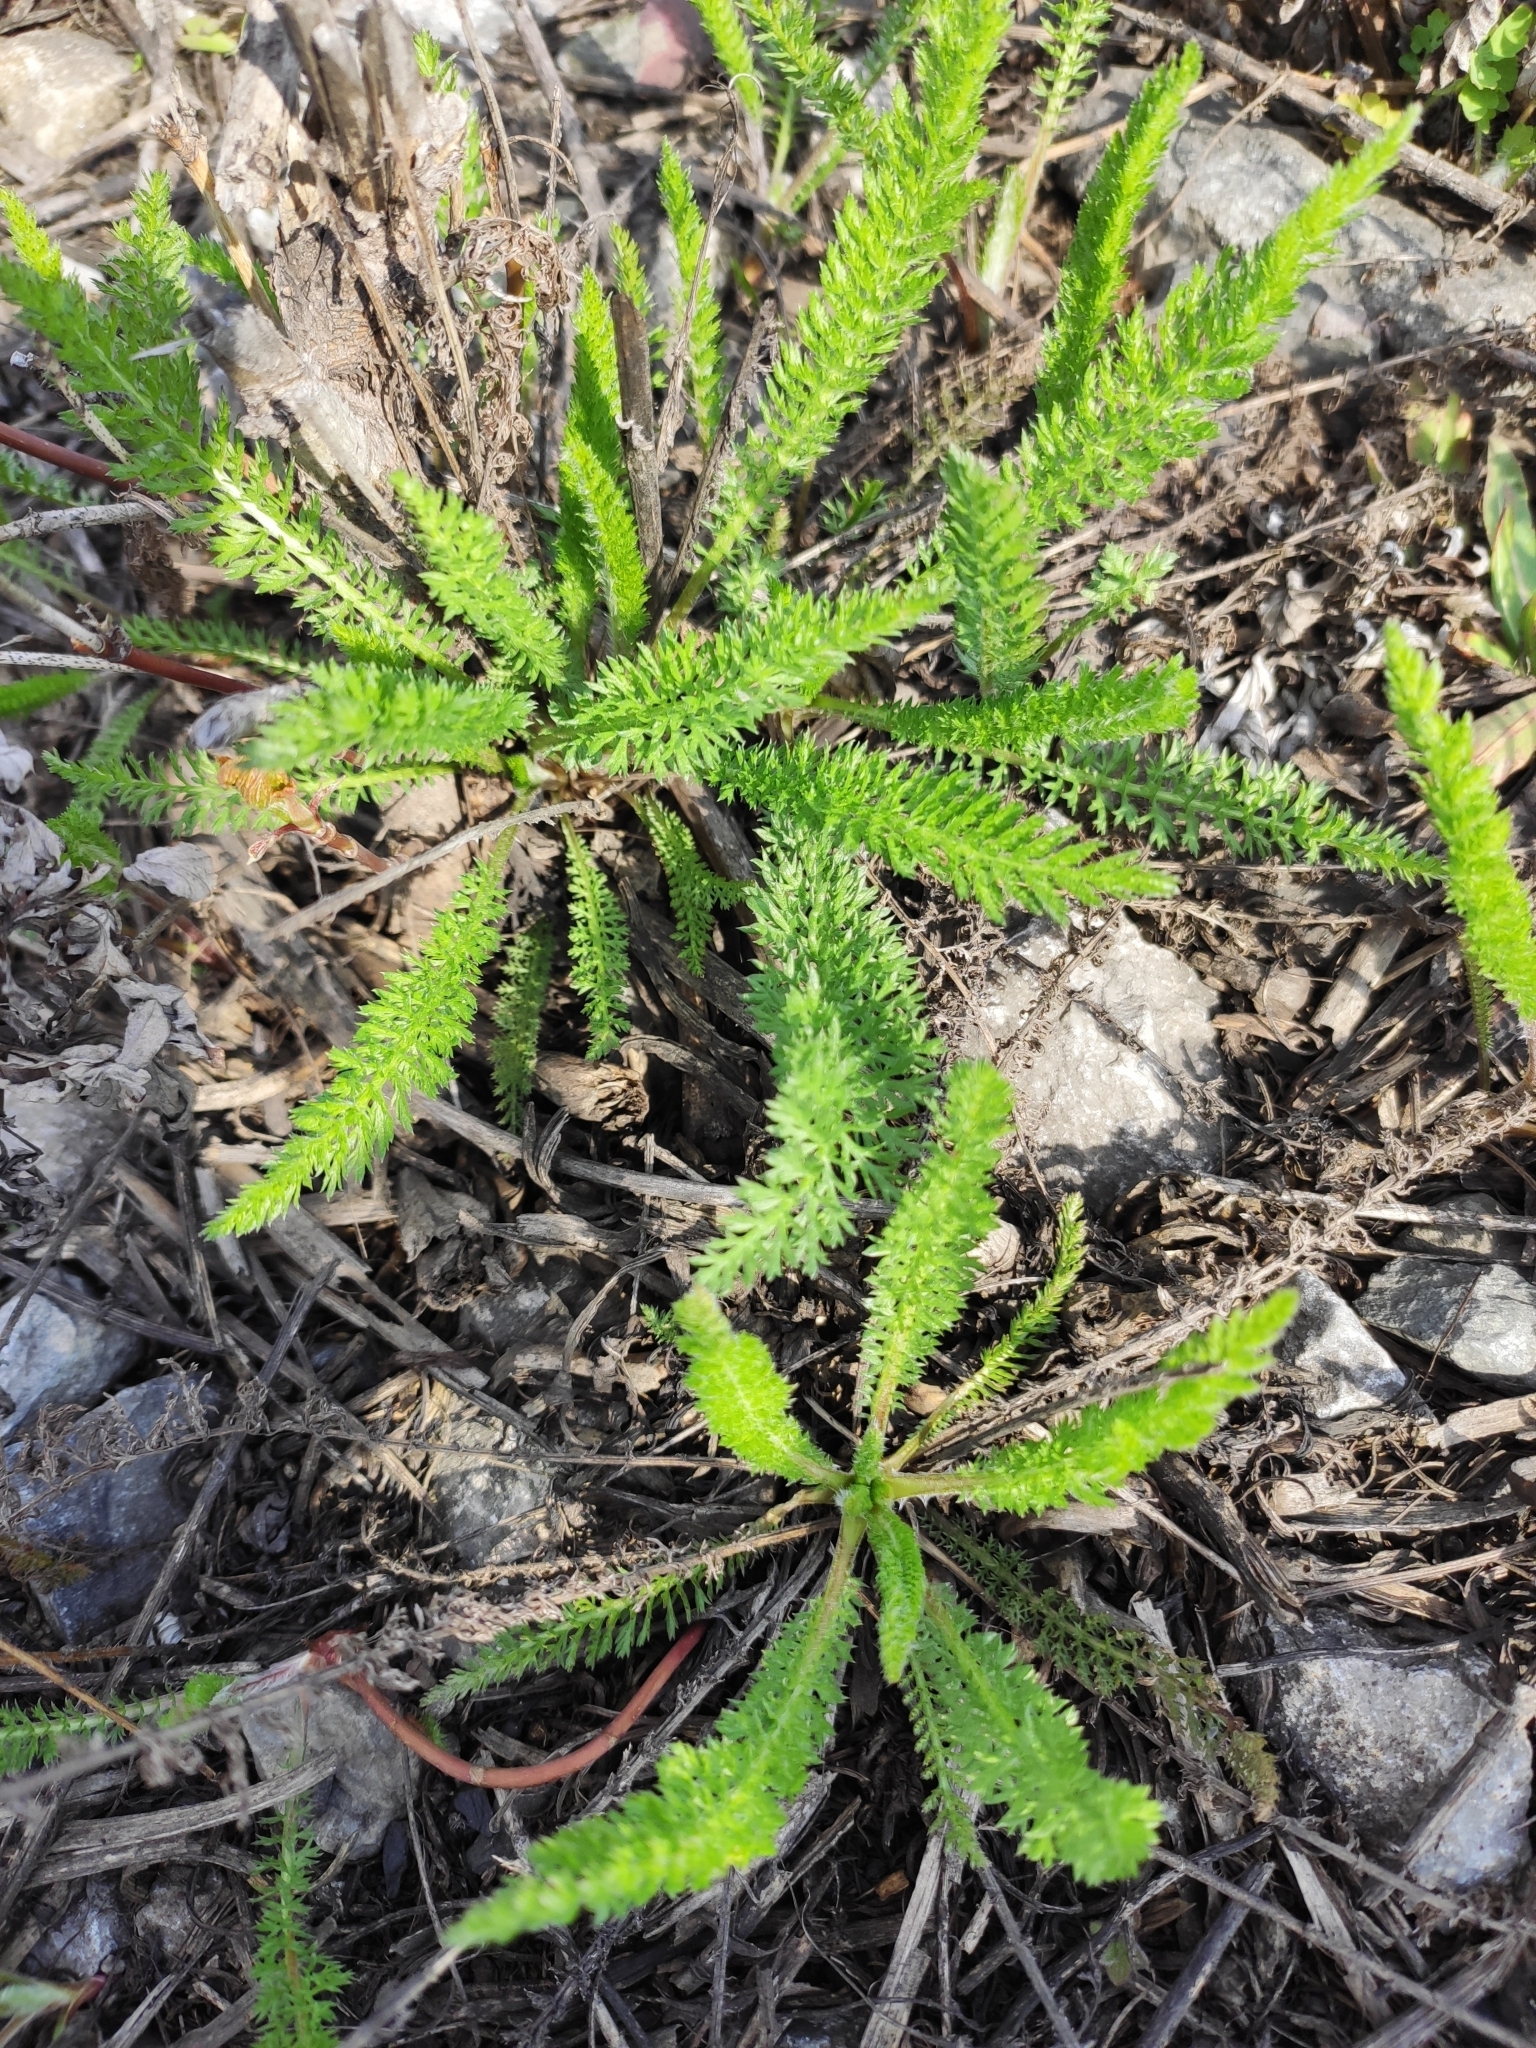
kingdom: Plantae
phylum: Tracheophyta
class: Magnoliopsida
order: Asterales
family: Asteraceae
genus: Achillea
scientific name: Achillea millefolium
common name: Yarrow
